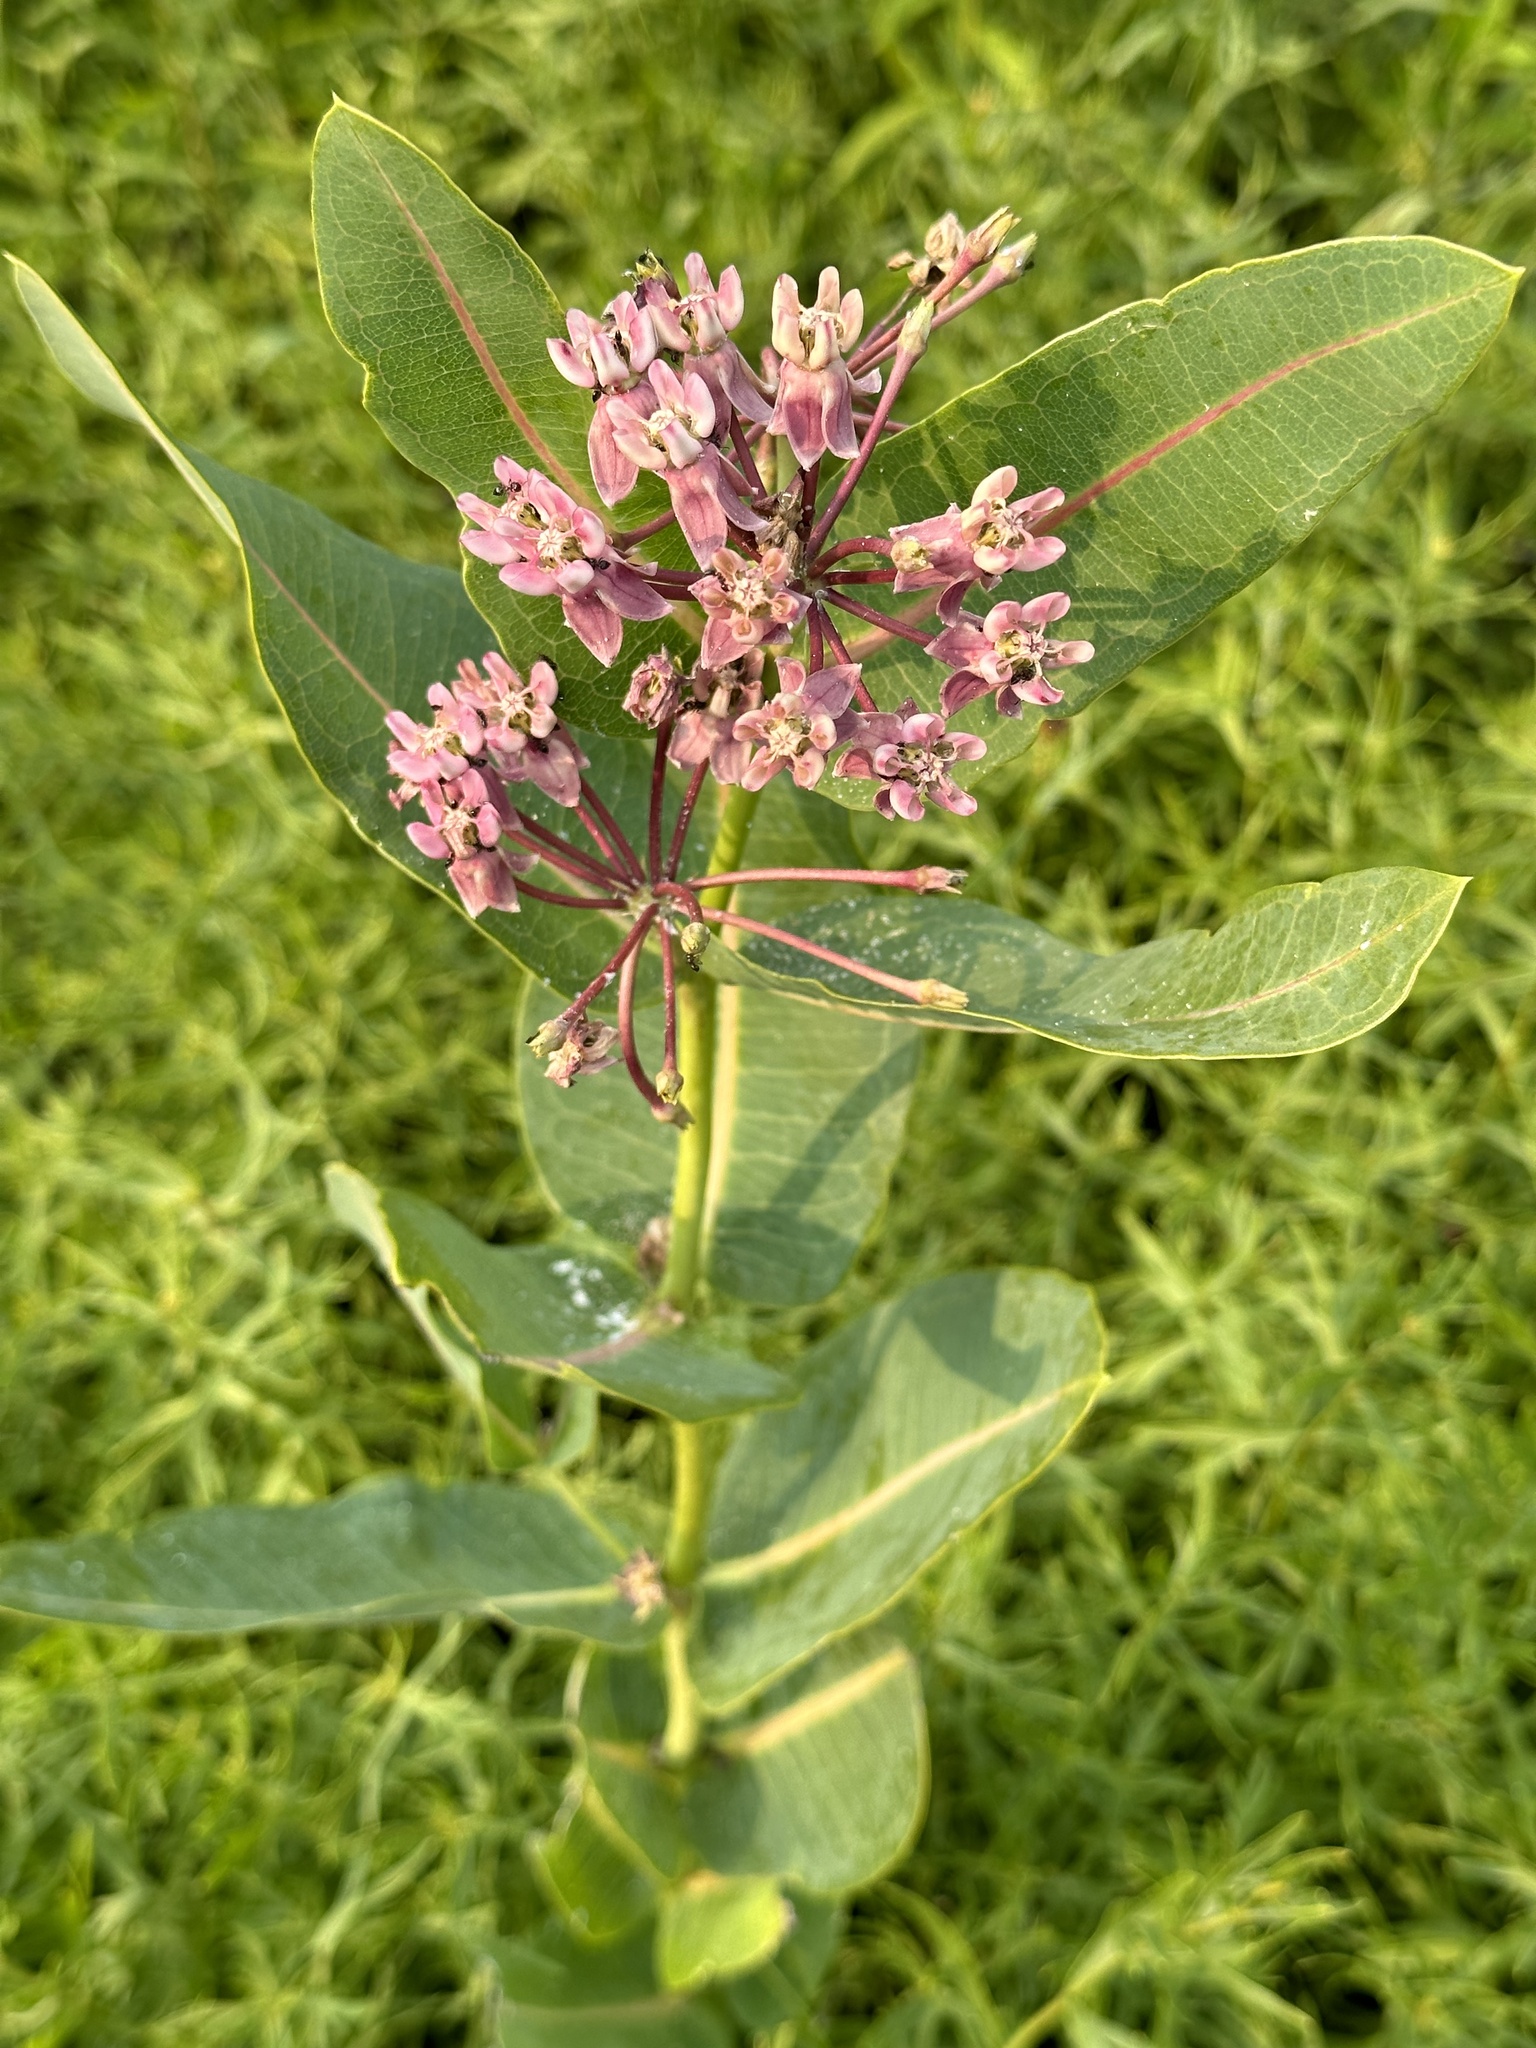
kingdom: Plantae
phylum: Tracheophyta
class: Magnoliopsida
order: Gentianales
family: Apocynaceae
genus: Asclepias
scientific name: Asclepias syriaca
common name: Common milkweed
